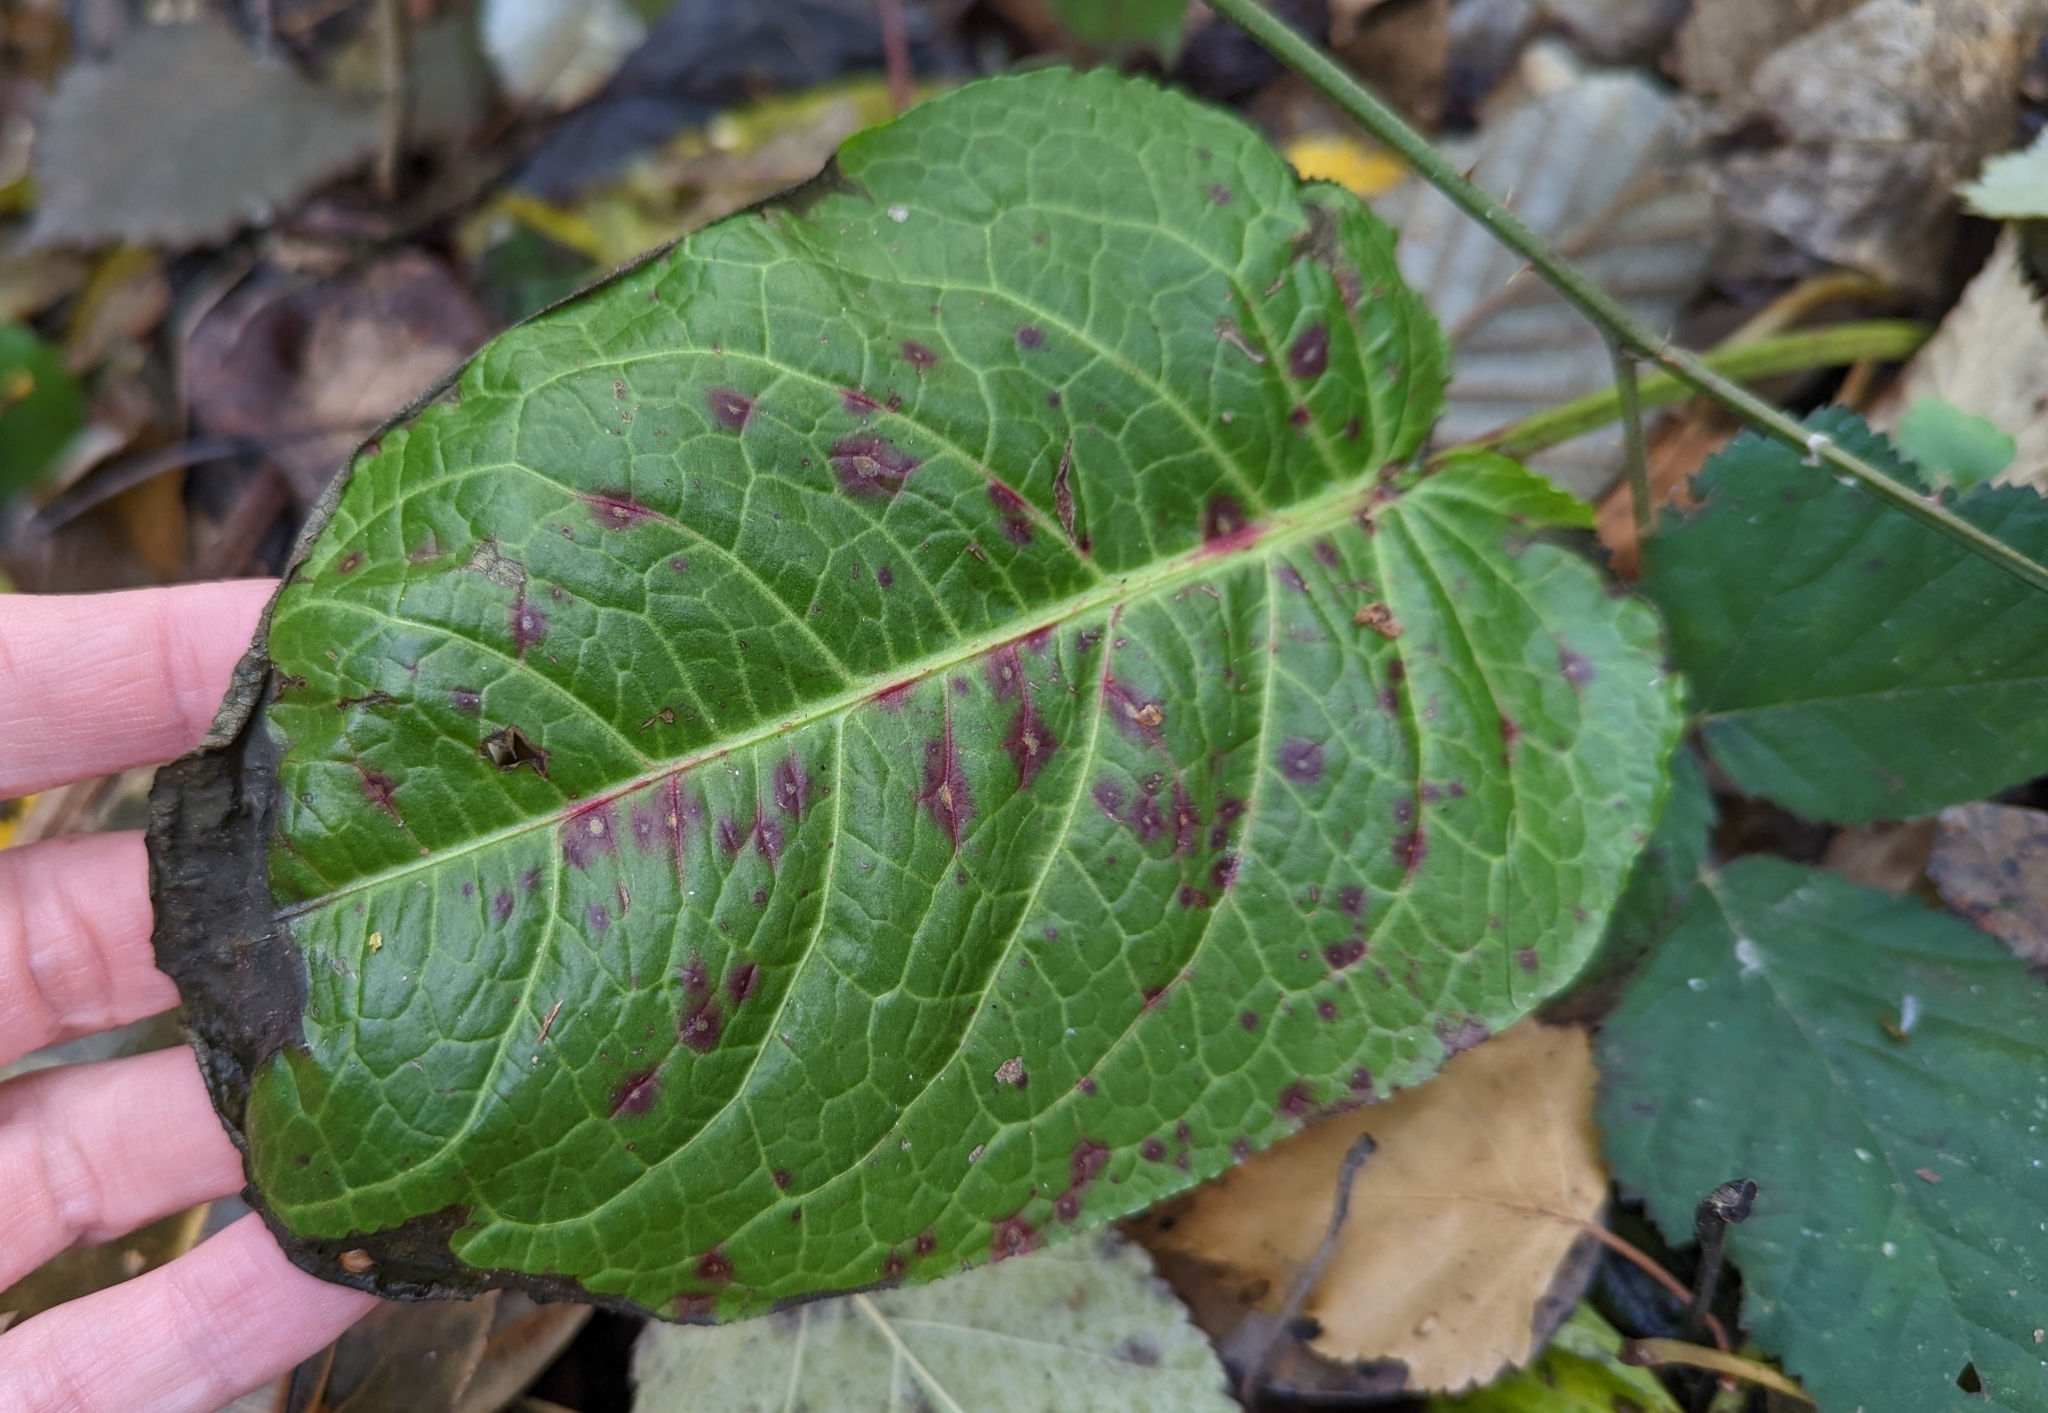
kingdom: Plantae
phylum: Tracheophyta
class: Magnoliopsida
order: Caryophyllales
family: Polygonaceae
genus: Rumex
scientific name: Rumex obtusifolius
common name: Bitter dock
